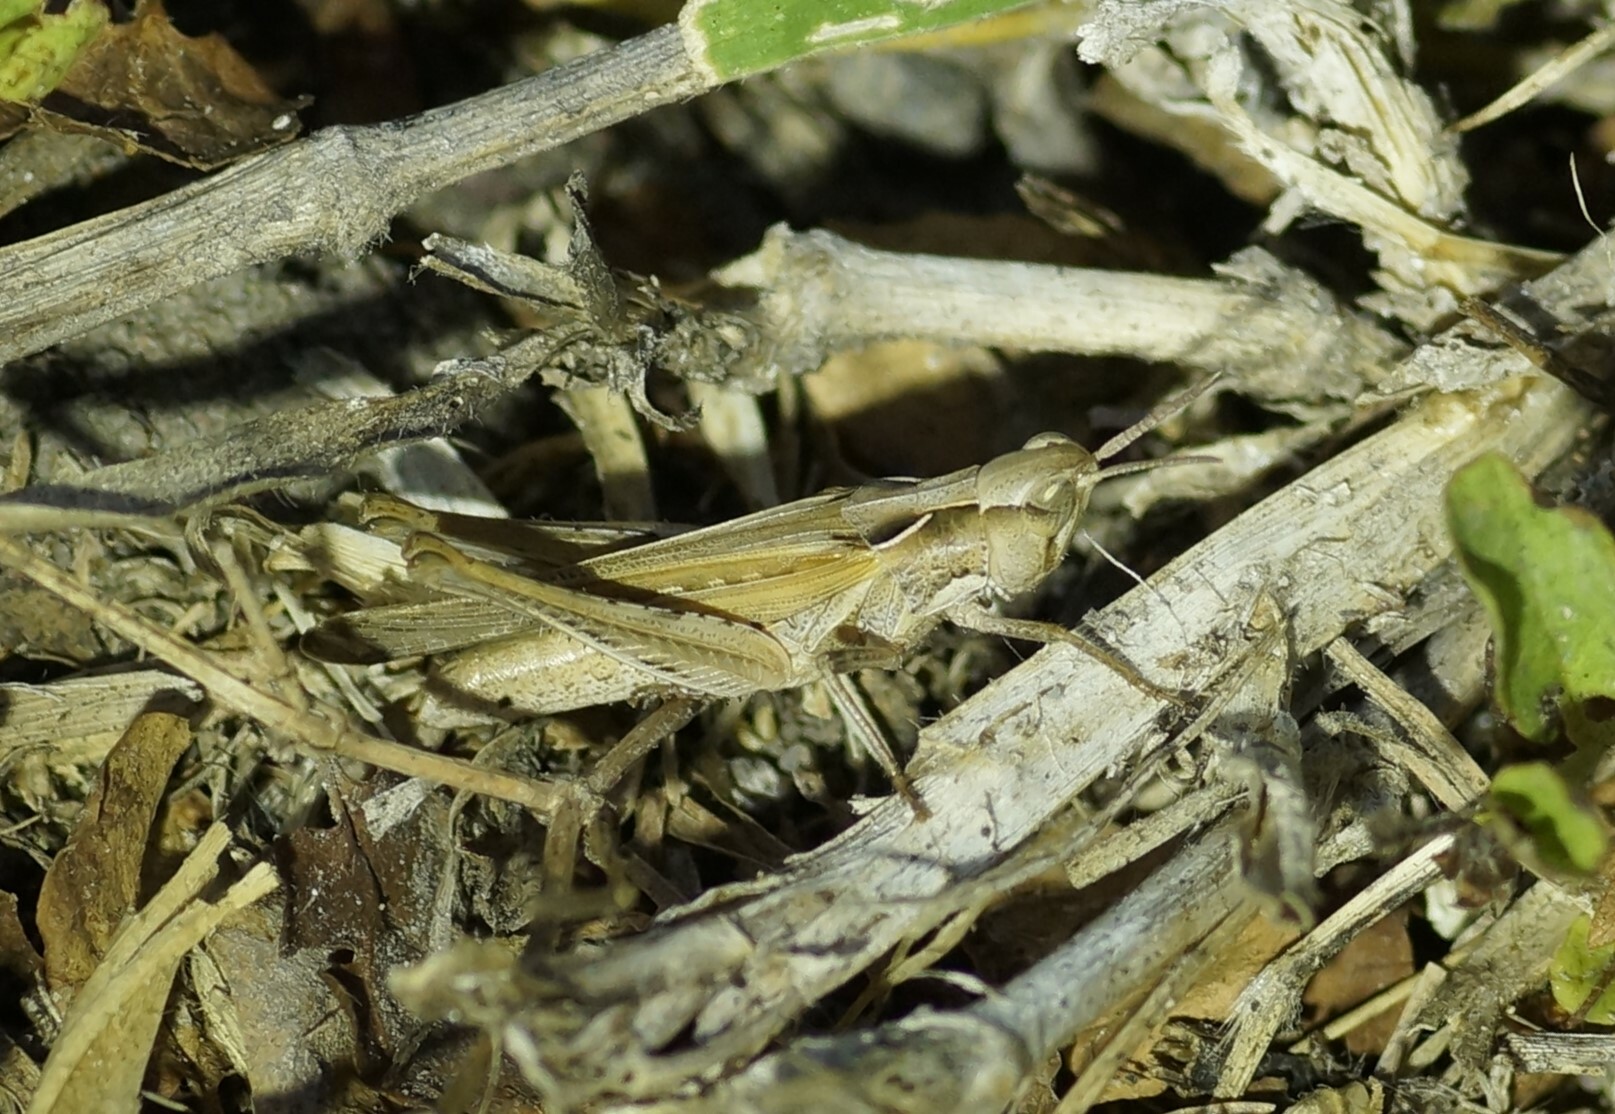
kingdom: Animalia
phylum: Arthropoda
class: Insecta
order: Orthoptera
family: Acrididae
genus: Calephorops
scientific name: Calephorops viridis
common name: Calephorops
